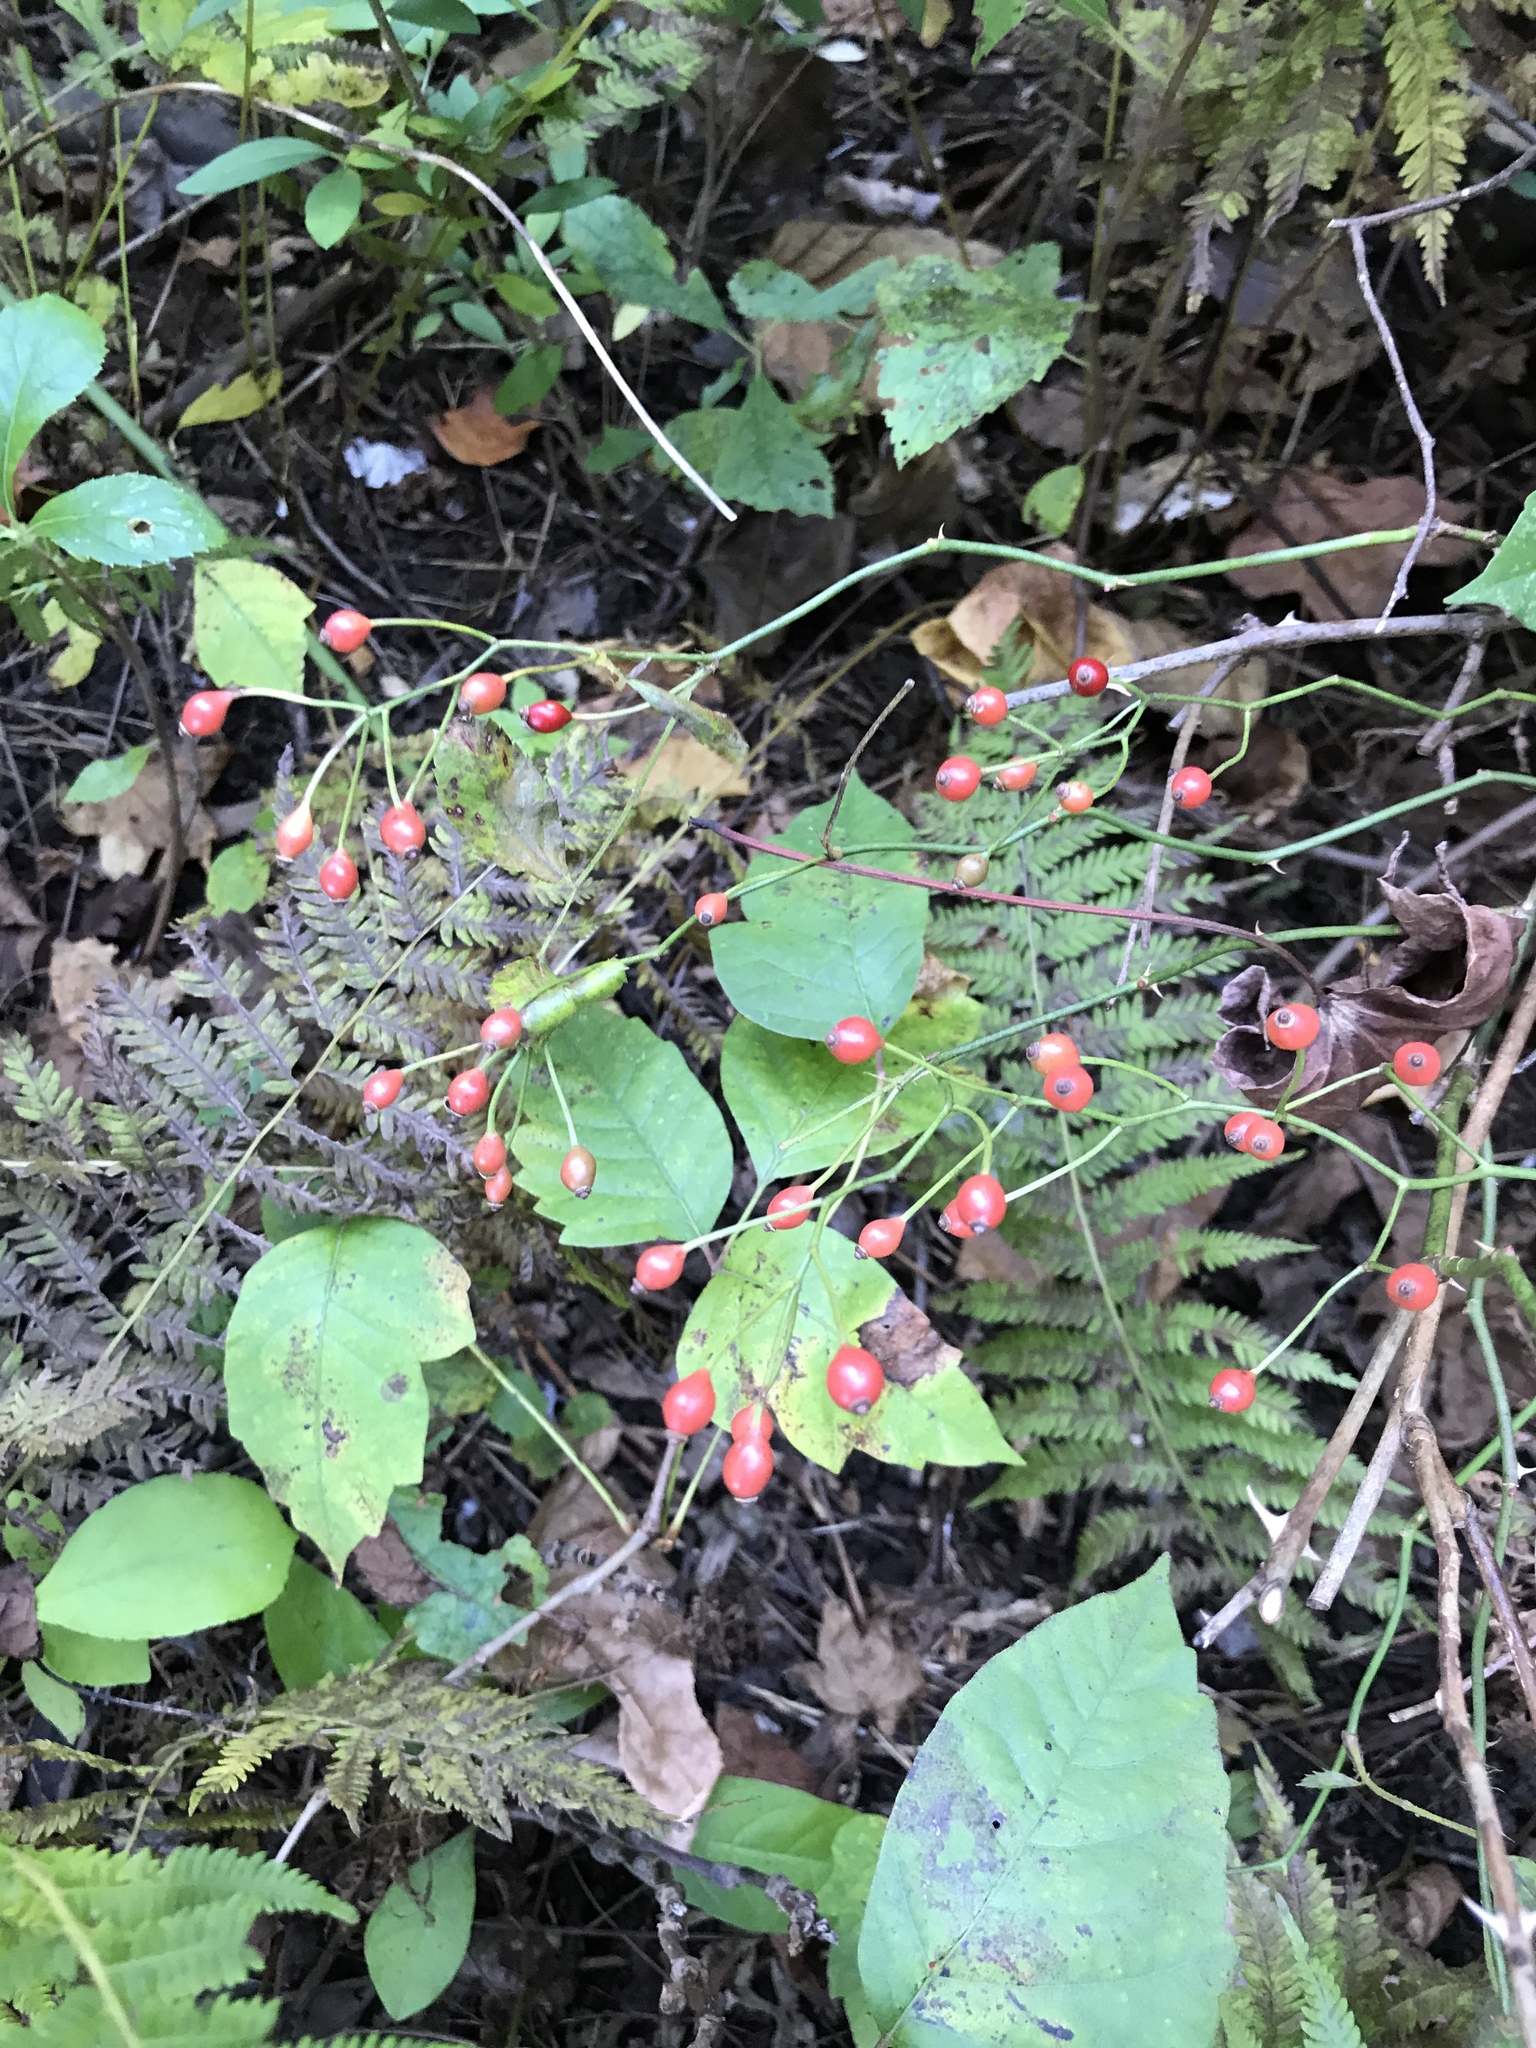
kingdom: Plantae
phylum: Tracheophyta
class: Magnoliopsida
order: Rosales
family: Rosaceae
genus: Rosa
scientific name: Rosa multiflora
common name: Multiflora rose
